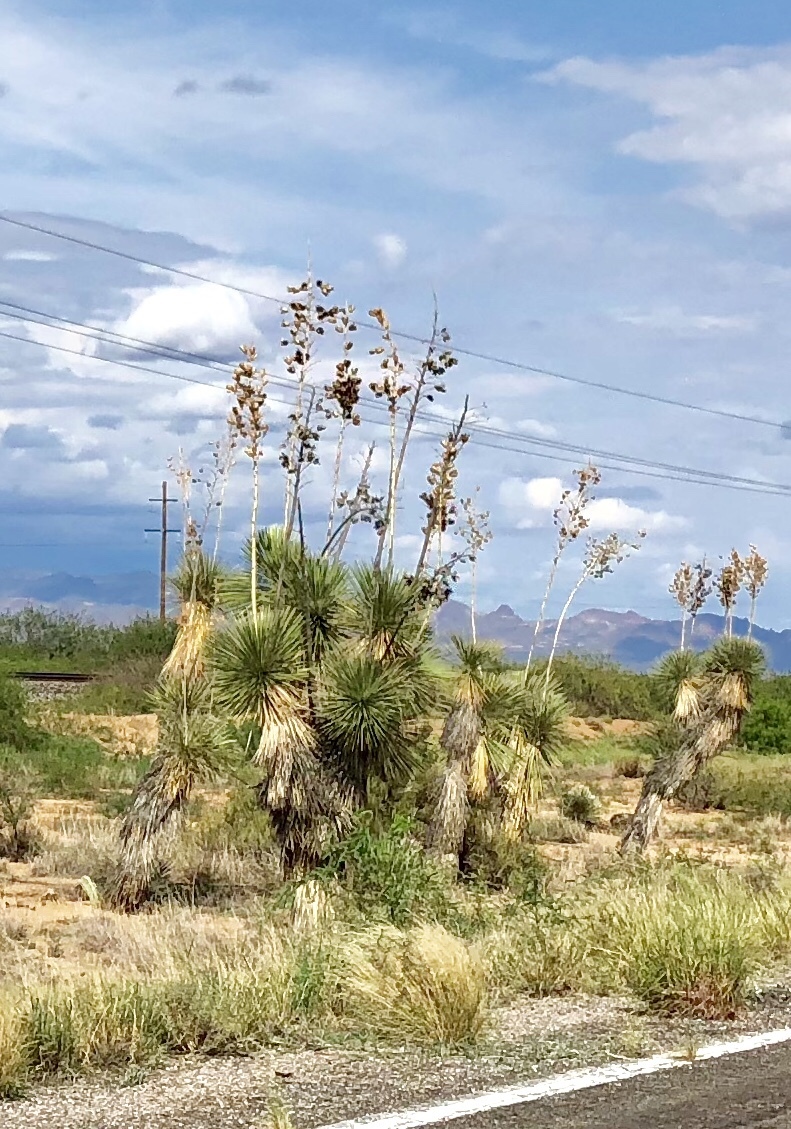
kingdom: Plantae
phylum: Tracheophyta
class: Liliopsida
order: Asparagales
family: Asparagaceae
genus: Yucca
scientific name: Yucca elata
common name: Palmella
